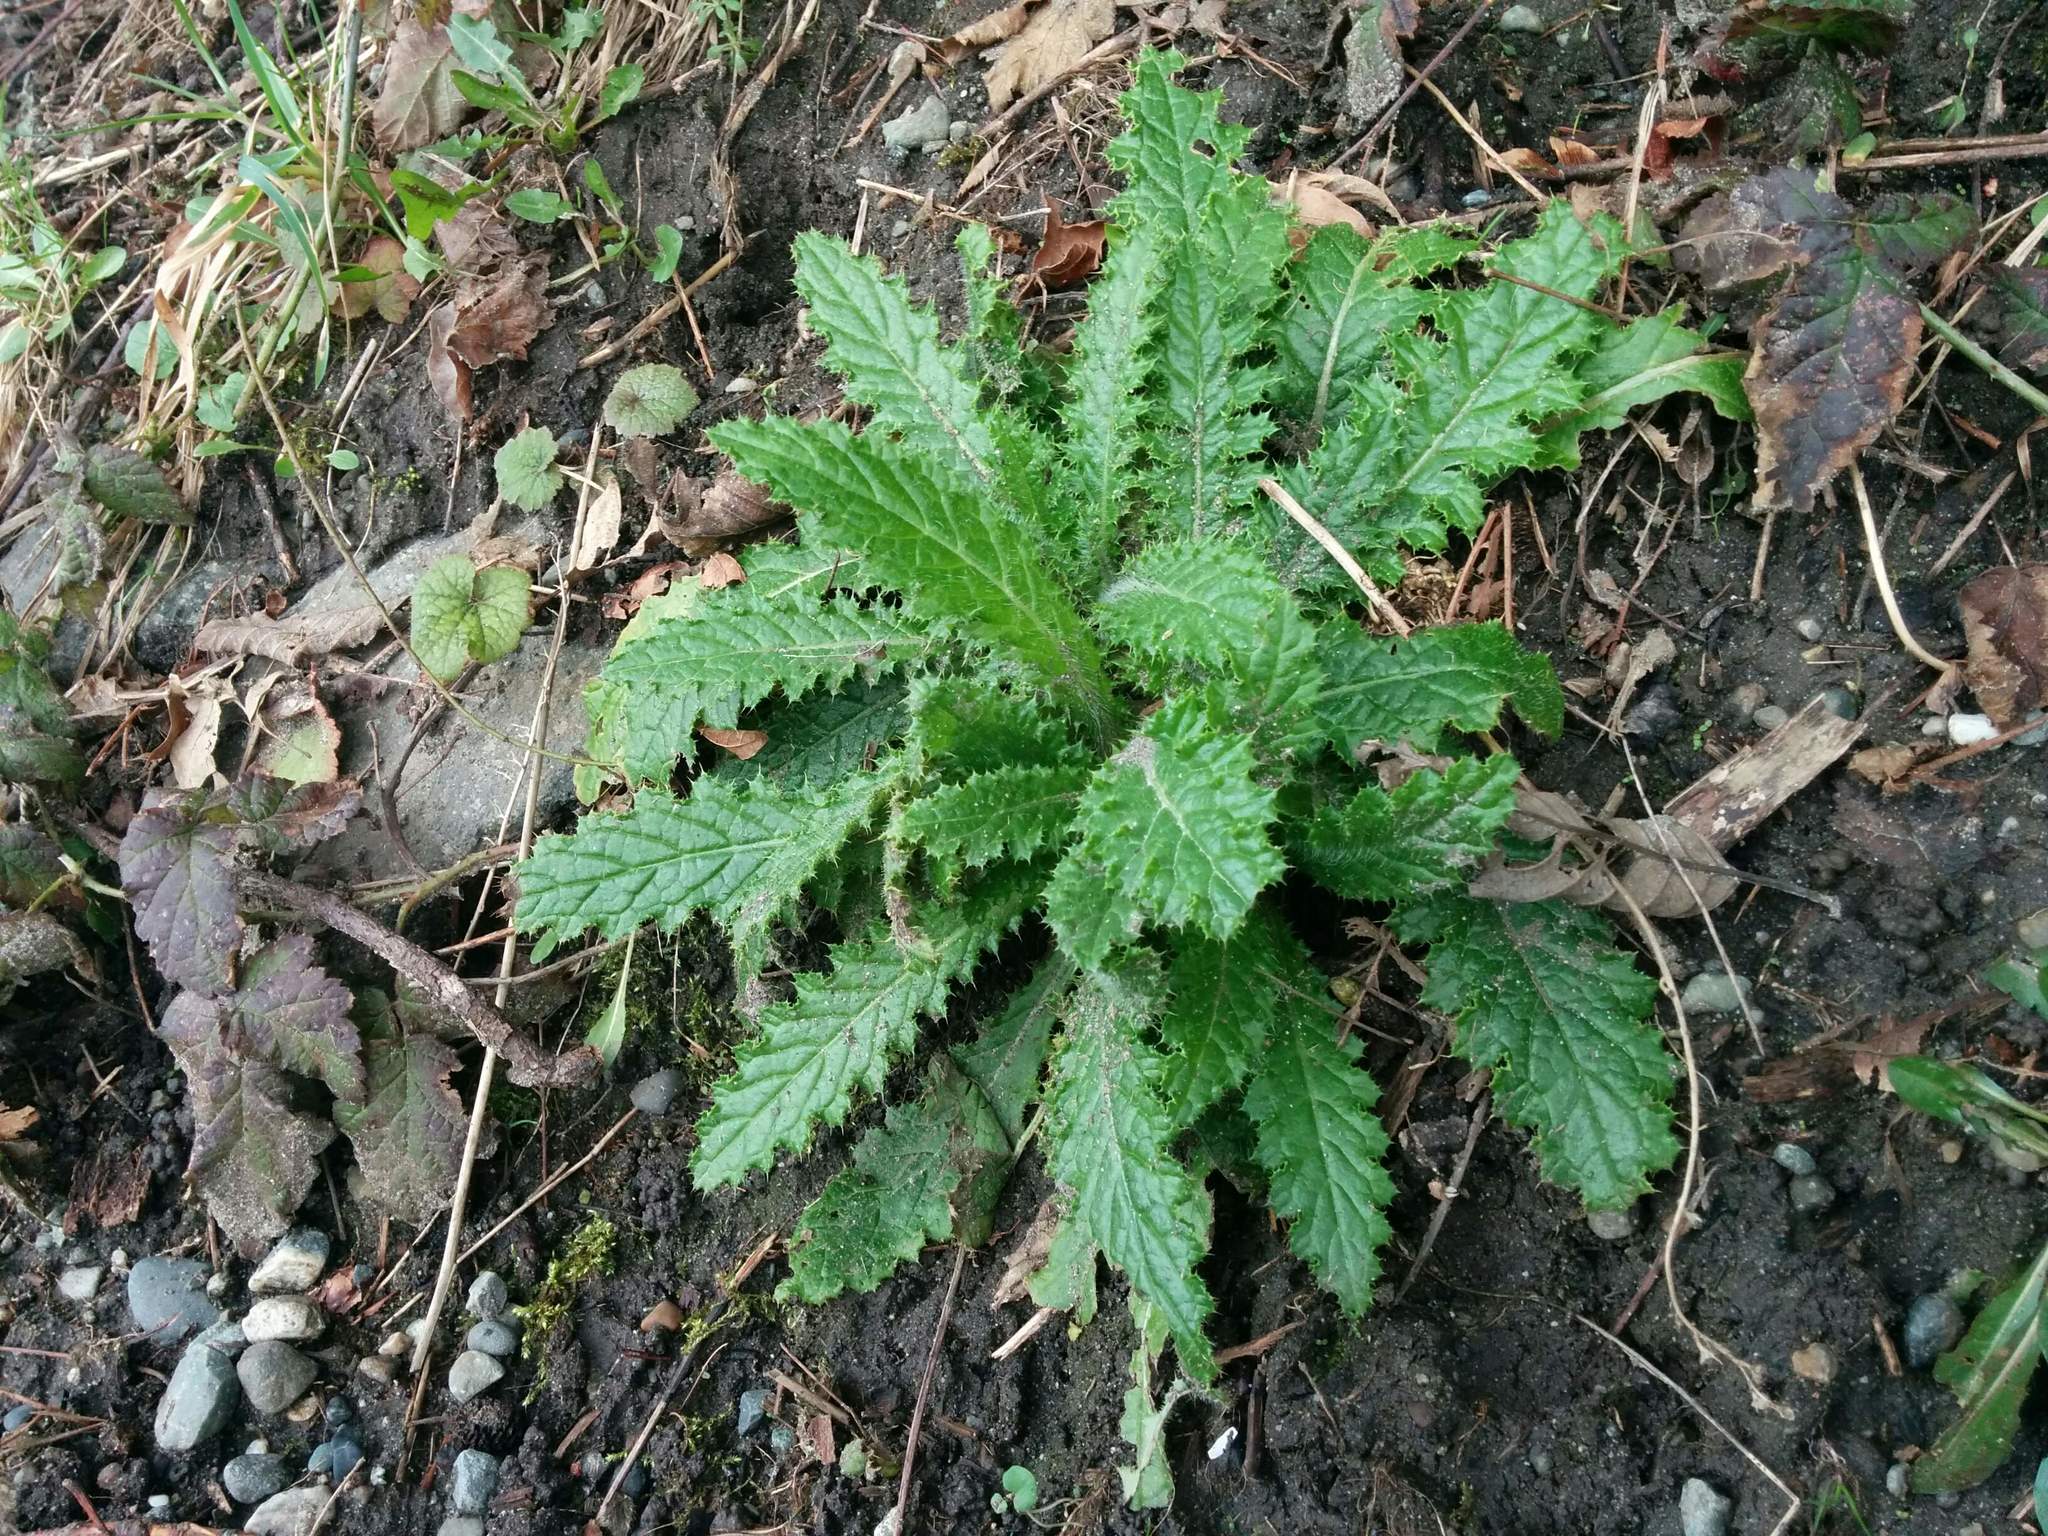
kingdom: Plantae
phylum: Tracheophyta
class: Magnoliopsida
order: Asterales
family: Asteraceae
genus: Cirsium
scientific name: Cirsium brevistylum
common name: Indian thistle
